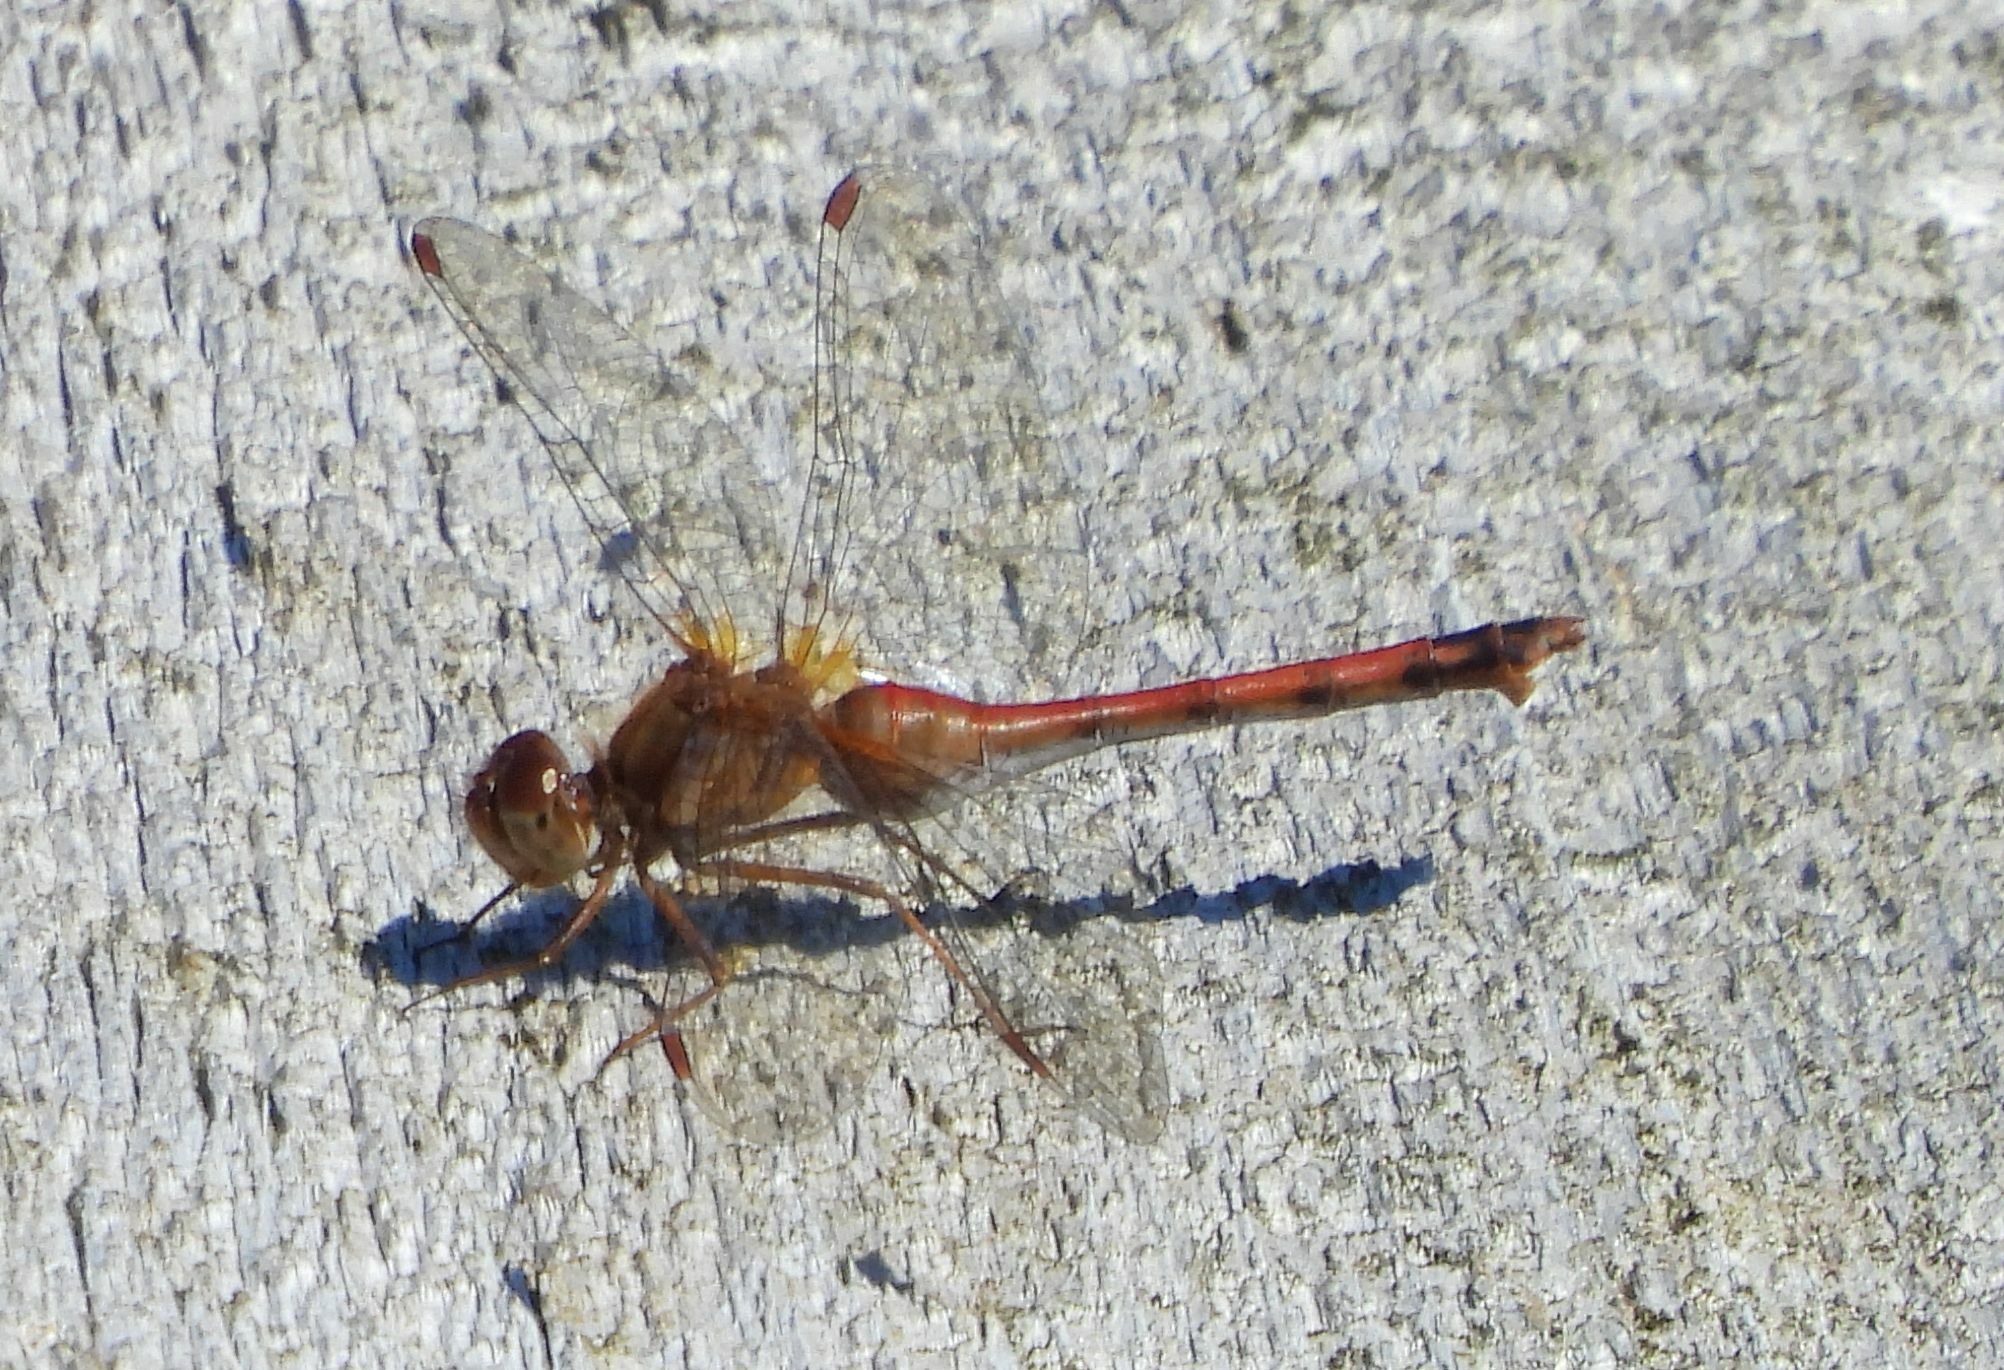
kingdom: Animalia
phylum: Arthropoda
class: Insecta
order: Odonata
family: Libellulidae
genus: Sympetrum
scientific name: Sympetrum vicinum
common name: Autumn meadowhawk
